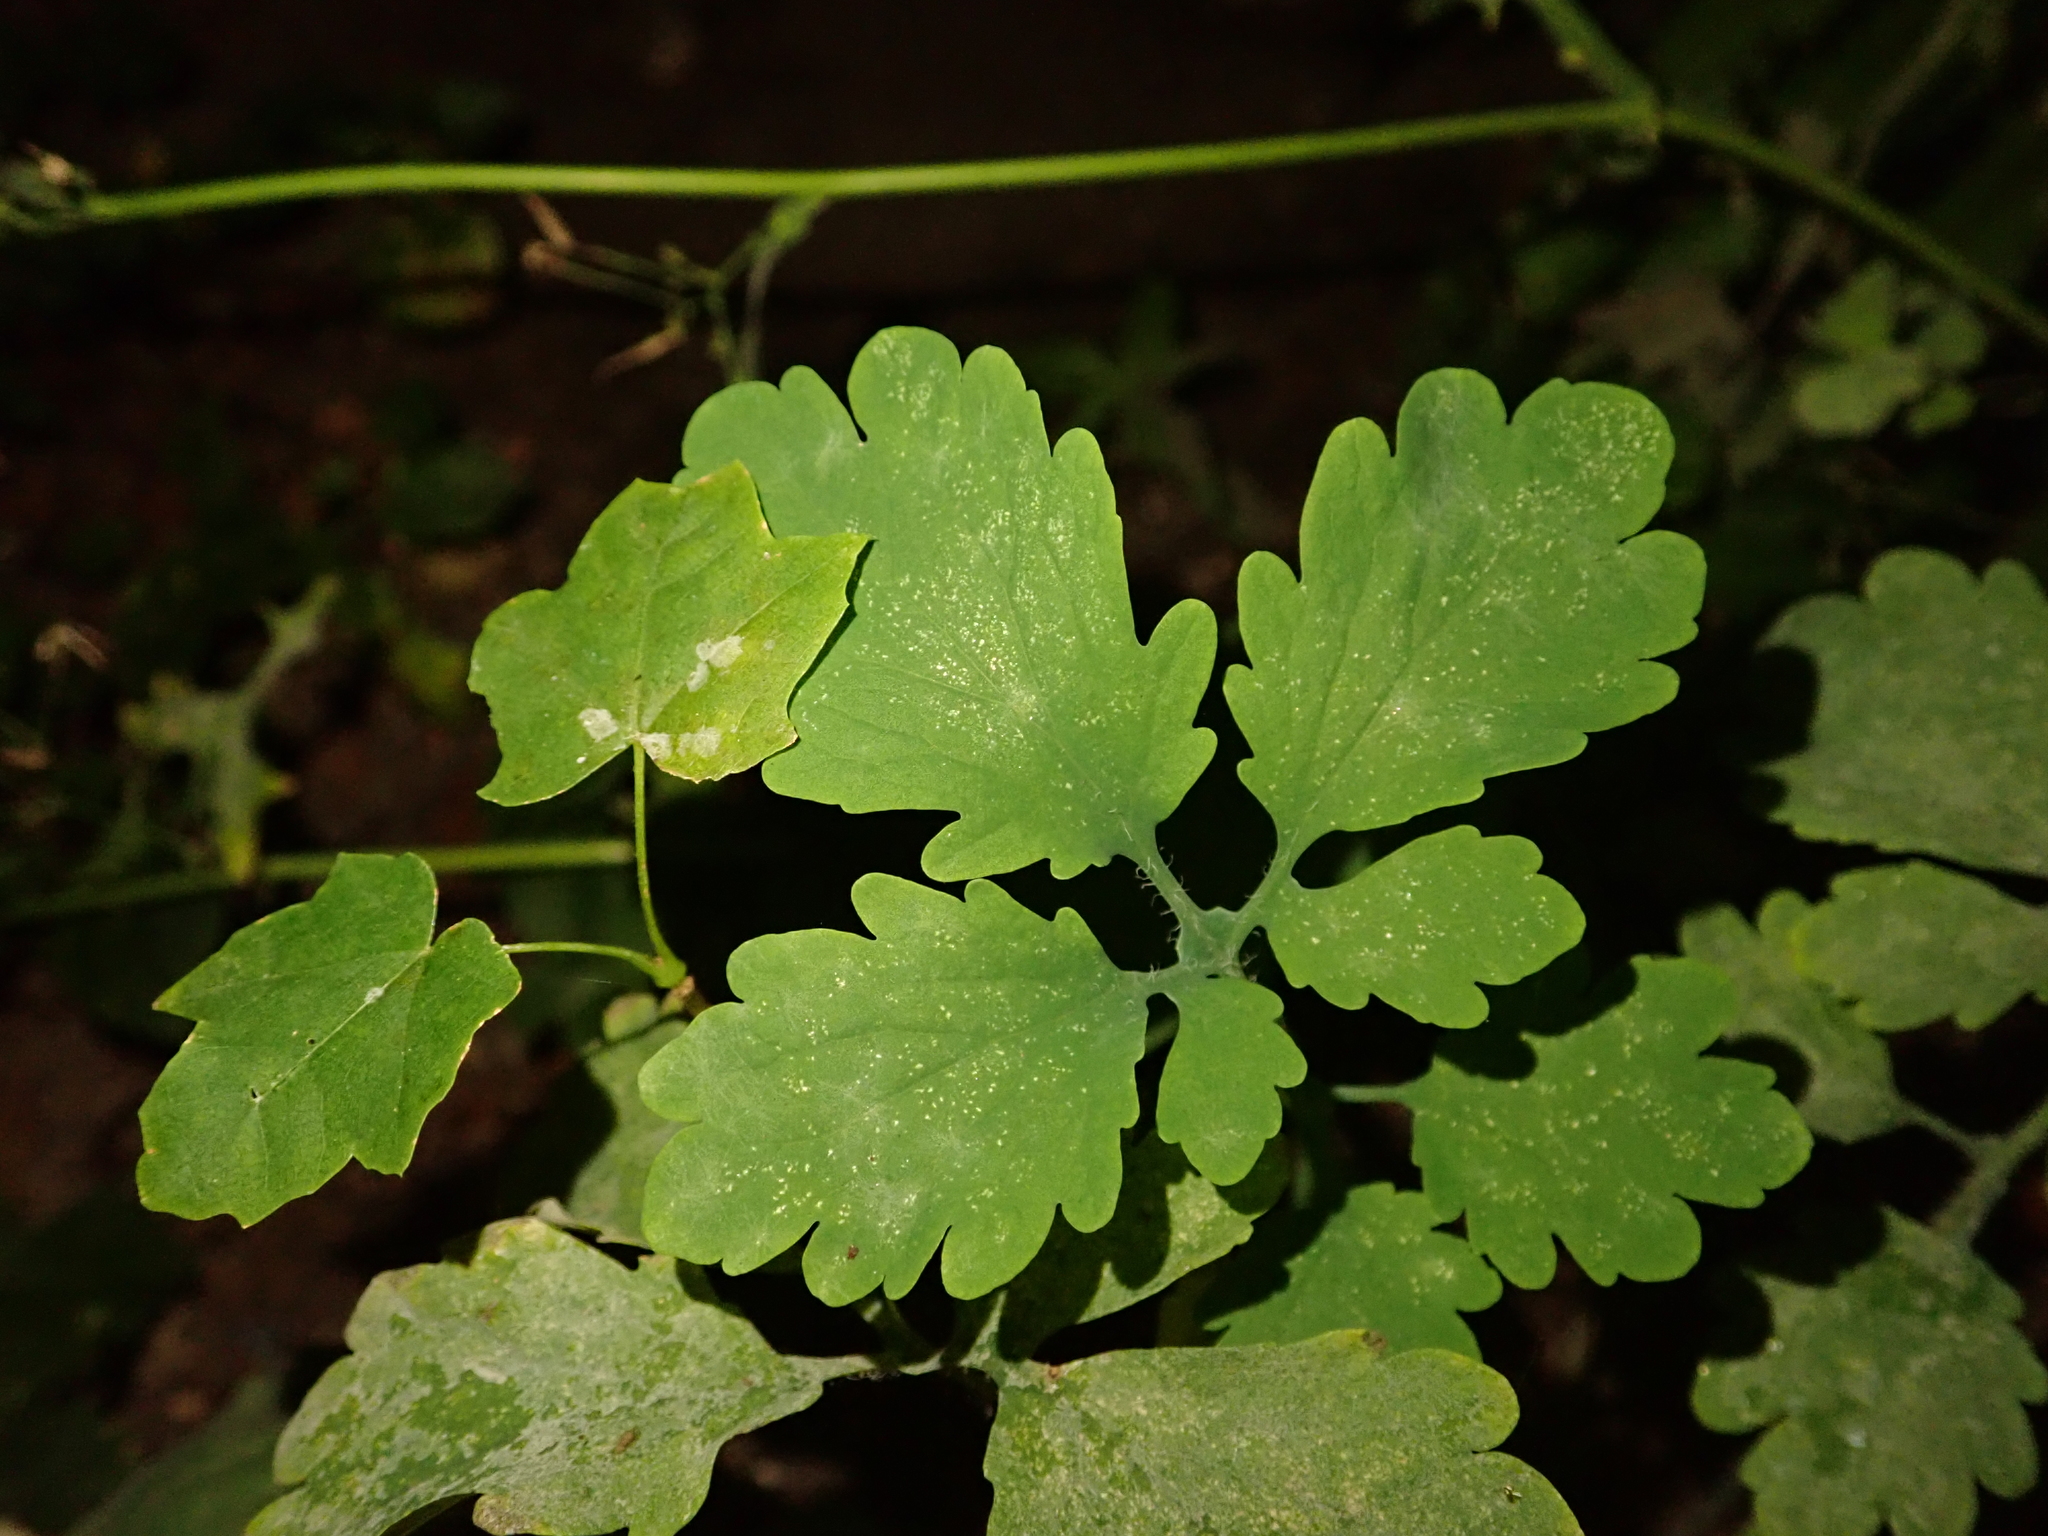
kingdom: Plantae
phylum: Tracheophyta
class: Magnoliopsida
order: Ranunculales
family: Papaveraceae
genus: Chelidonium
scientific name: Chelidonium majus
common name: Greater celandine
